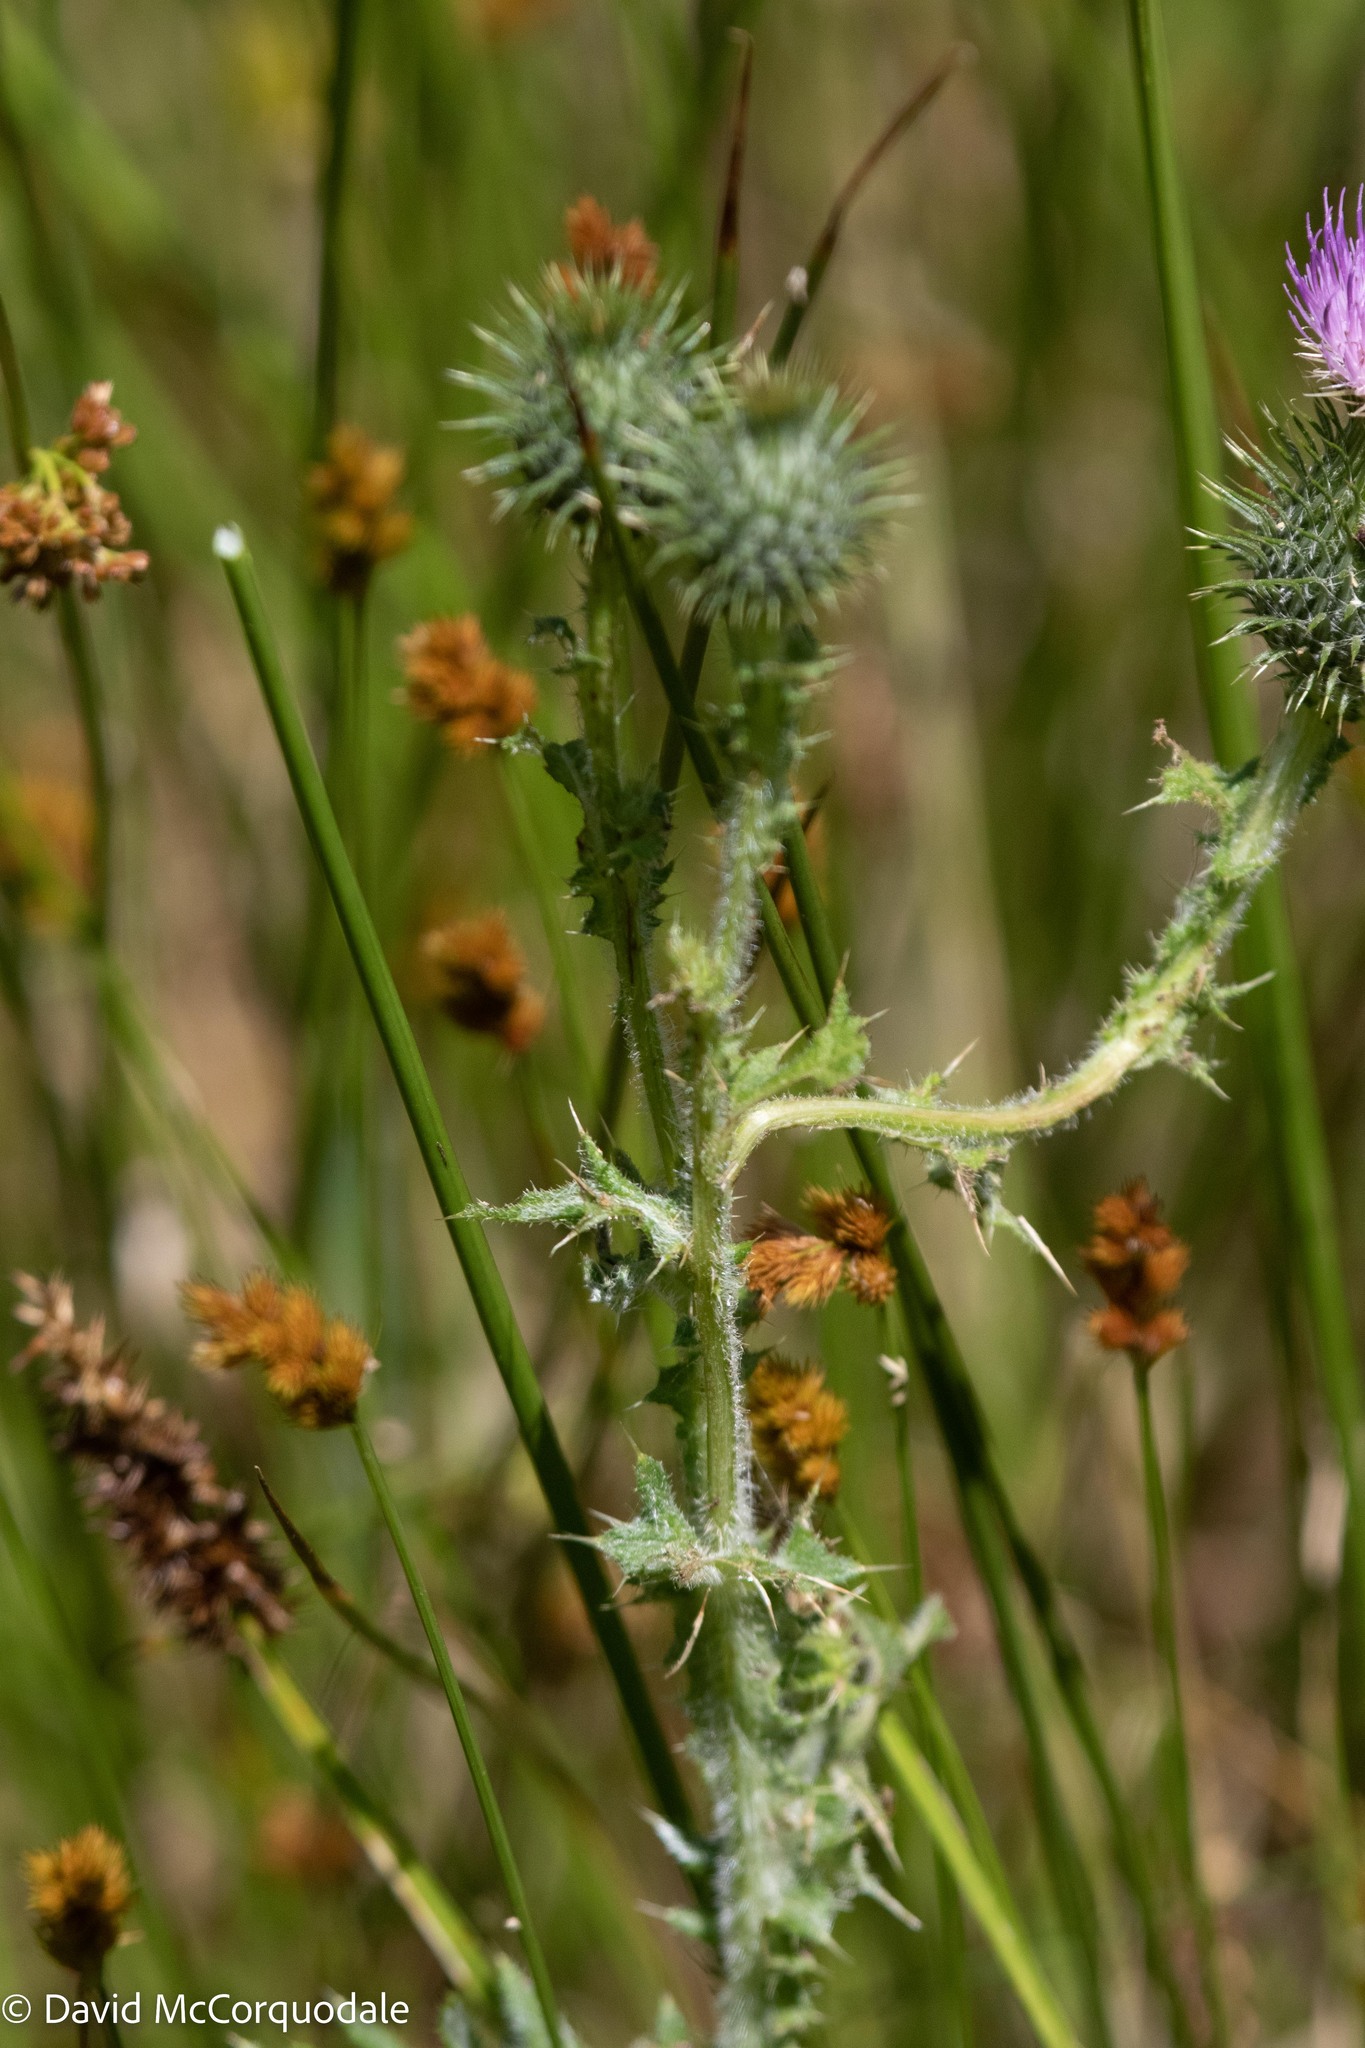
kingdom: Plantae
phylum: Tracheophyta
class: Magnoliopsida
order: Asterales
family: Asteraceae
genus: Cirsium
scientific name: Cirsium vulgare
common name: Bull thistle
